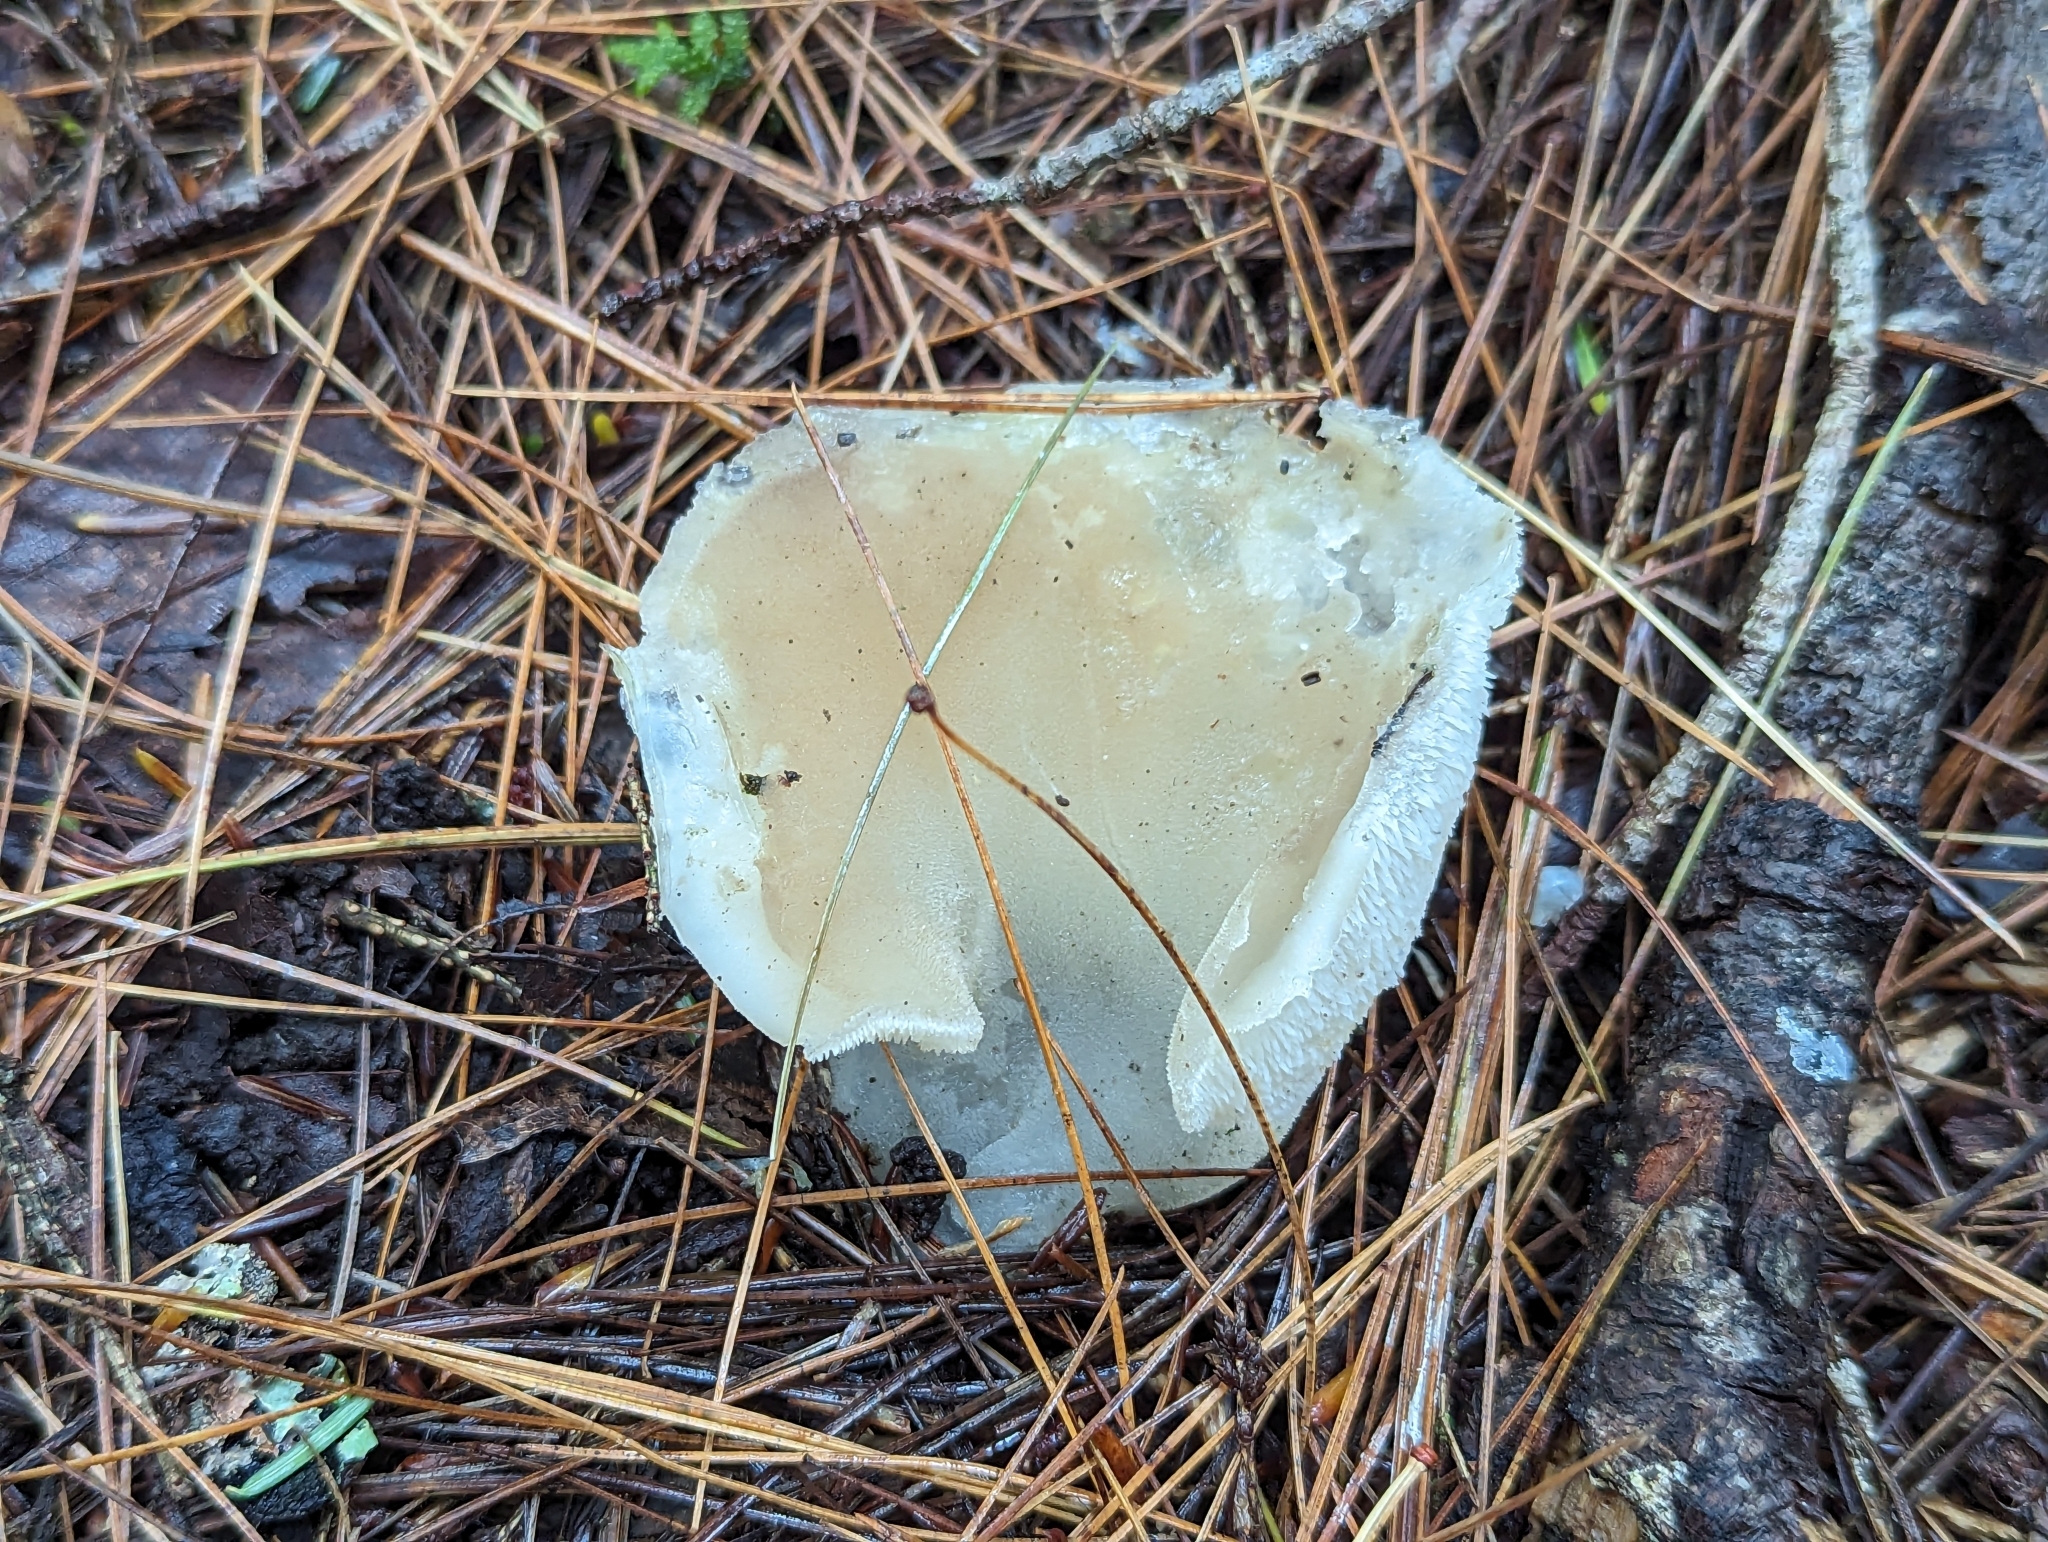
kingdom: Fungi
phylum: Basidiomycota
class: Agaricomycetes
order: Auriculariales
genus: Pseudohydnum
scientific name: Pseudohydnum gelatinosum
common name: Jelly tongue
